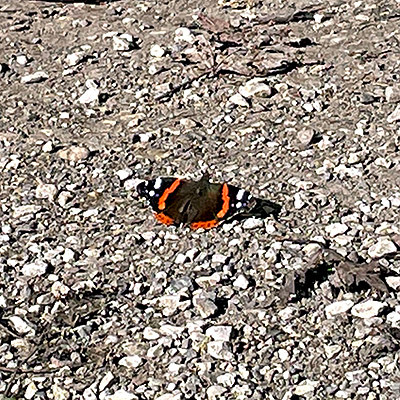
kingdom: Animalia
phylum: Arthropoda
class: Insecta
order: Lepidoptera
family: Nymphalidae
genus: Vanessa
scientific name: Vanessa atalanta
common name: Red admiral
